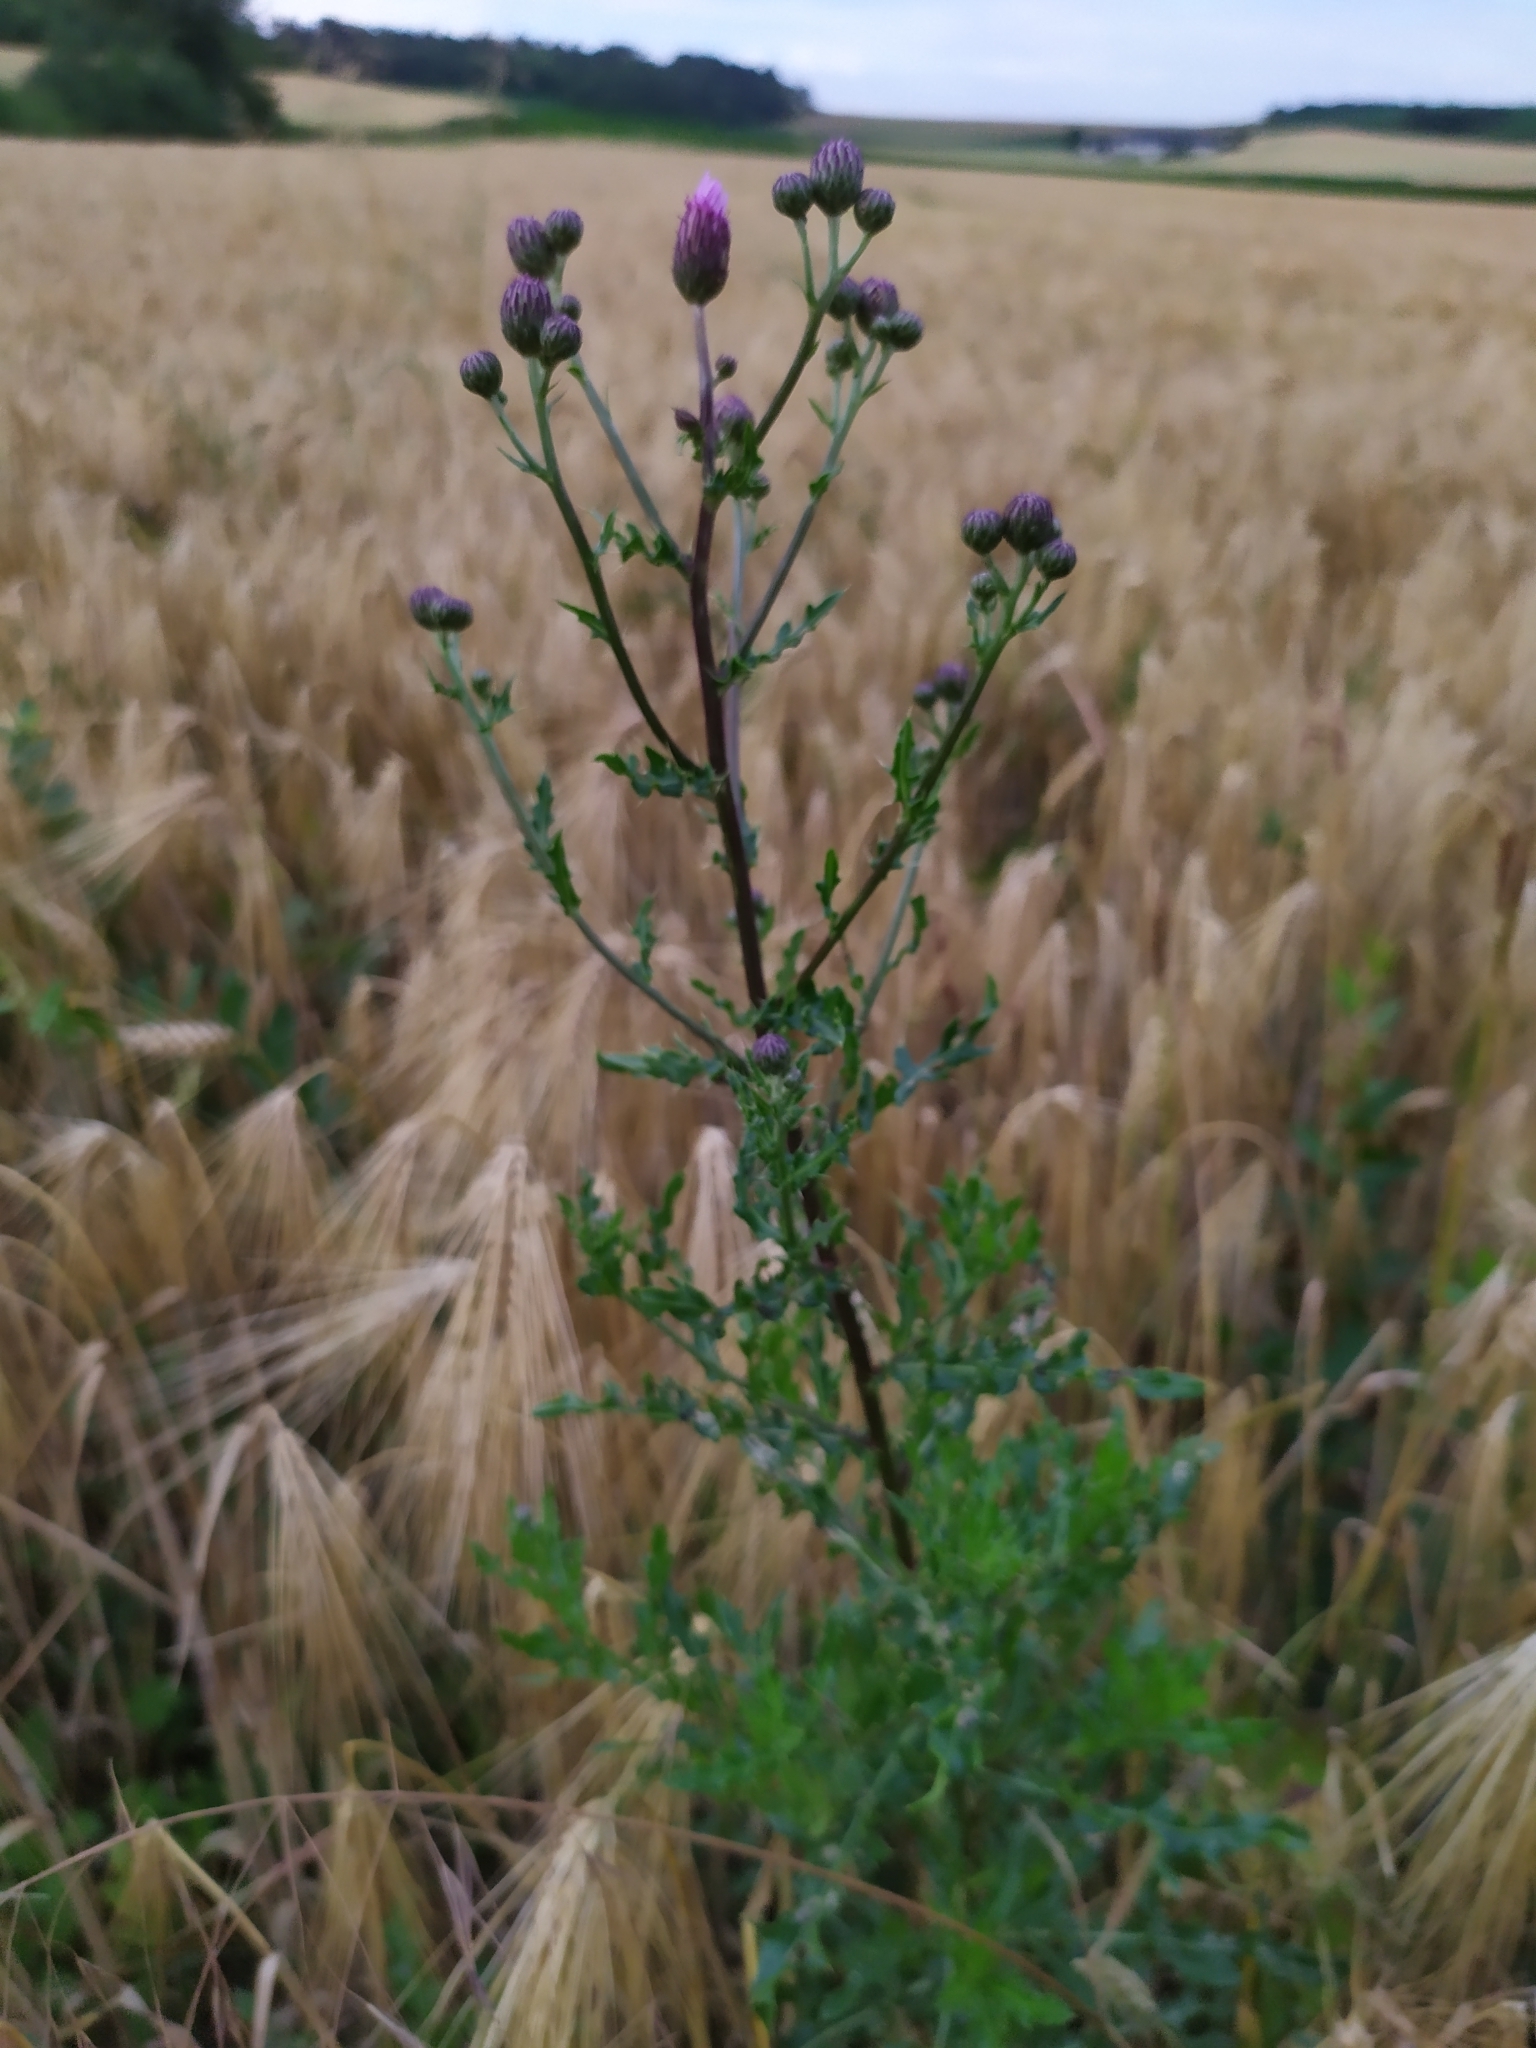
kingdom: Plantae
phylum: Tracheophyta
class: Magnoliopsida
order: Asterales
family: Asteraceae
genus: Cirsium
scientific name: Cirsium arvense
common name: Creeping thistle
